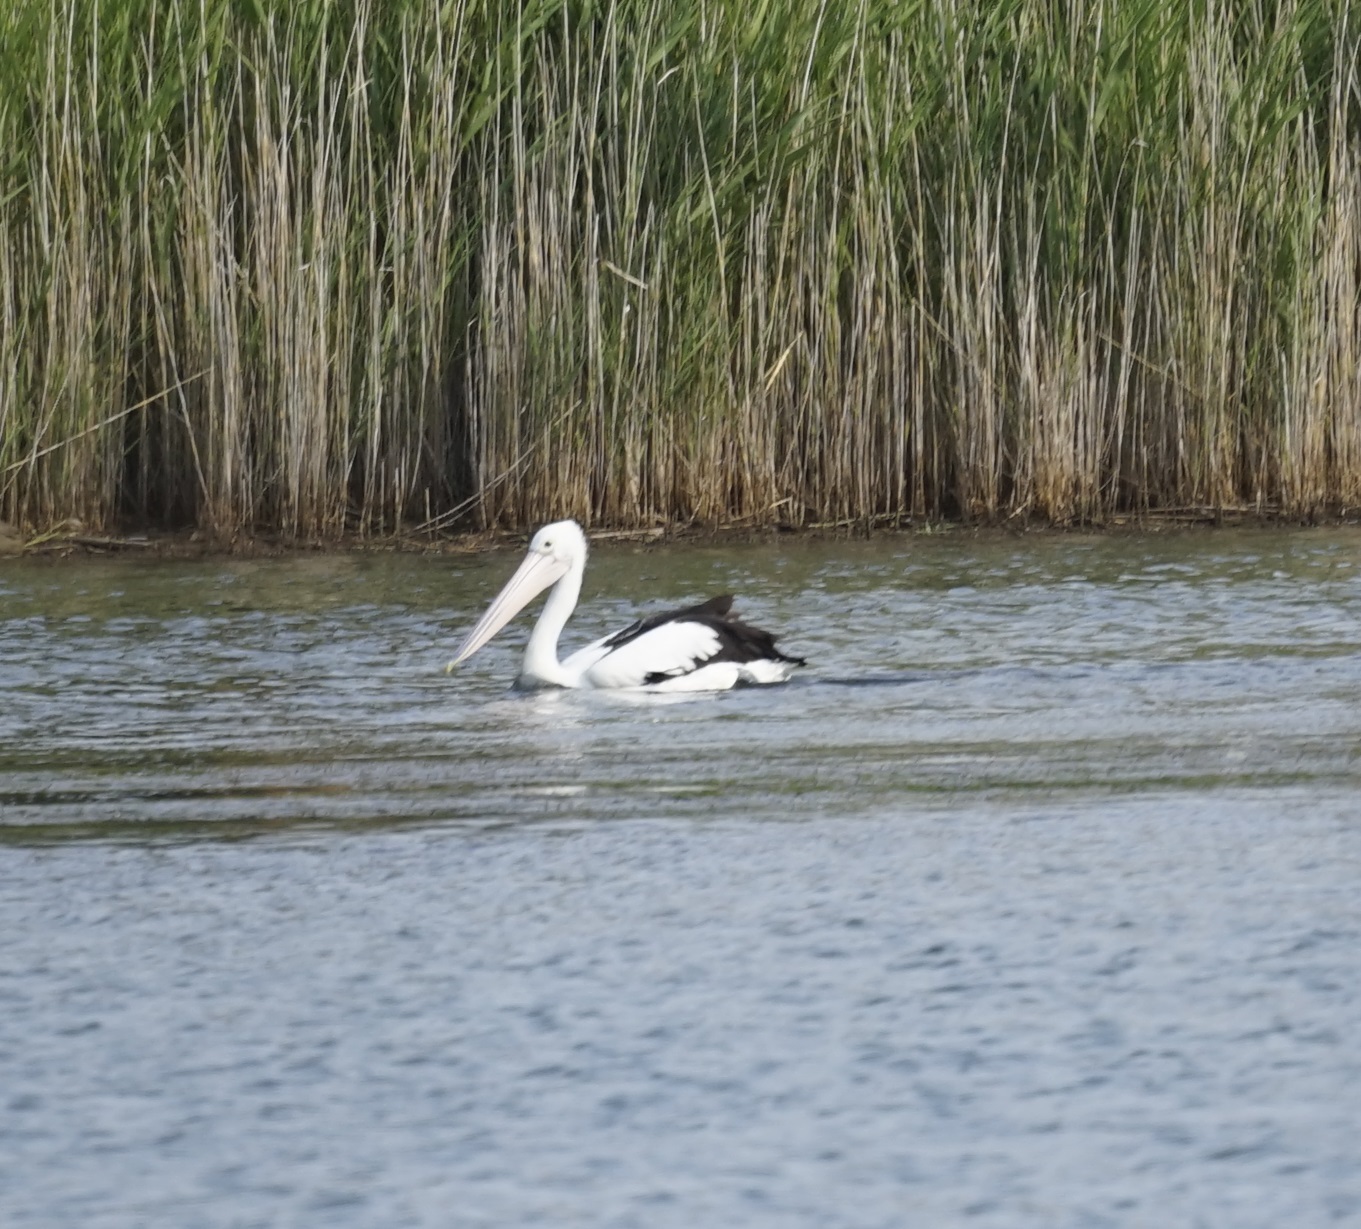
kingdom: Animalia
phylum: Chordata
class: Aves
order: Pelecaniformes
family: Pelecanidae
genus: Pelecanus
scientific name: Pelecanus conspicillatus
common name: Australian pelican
